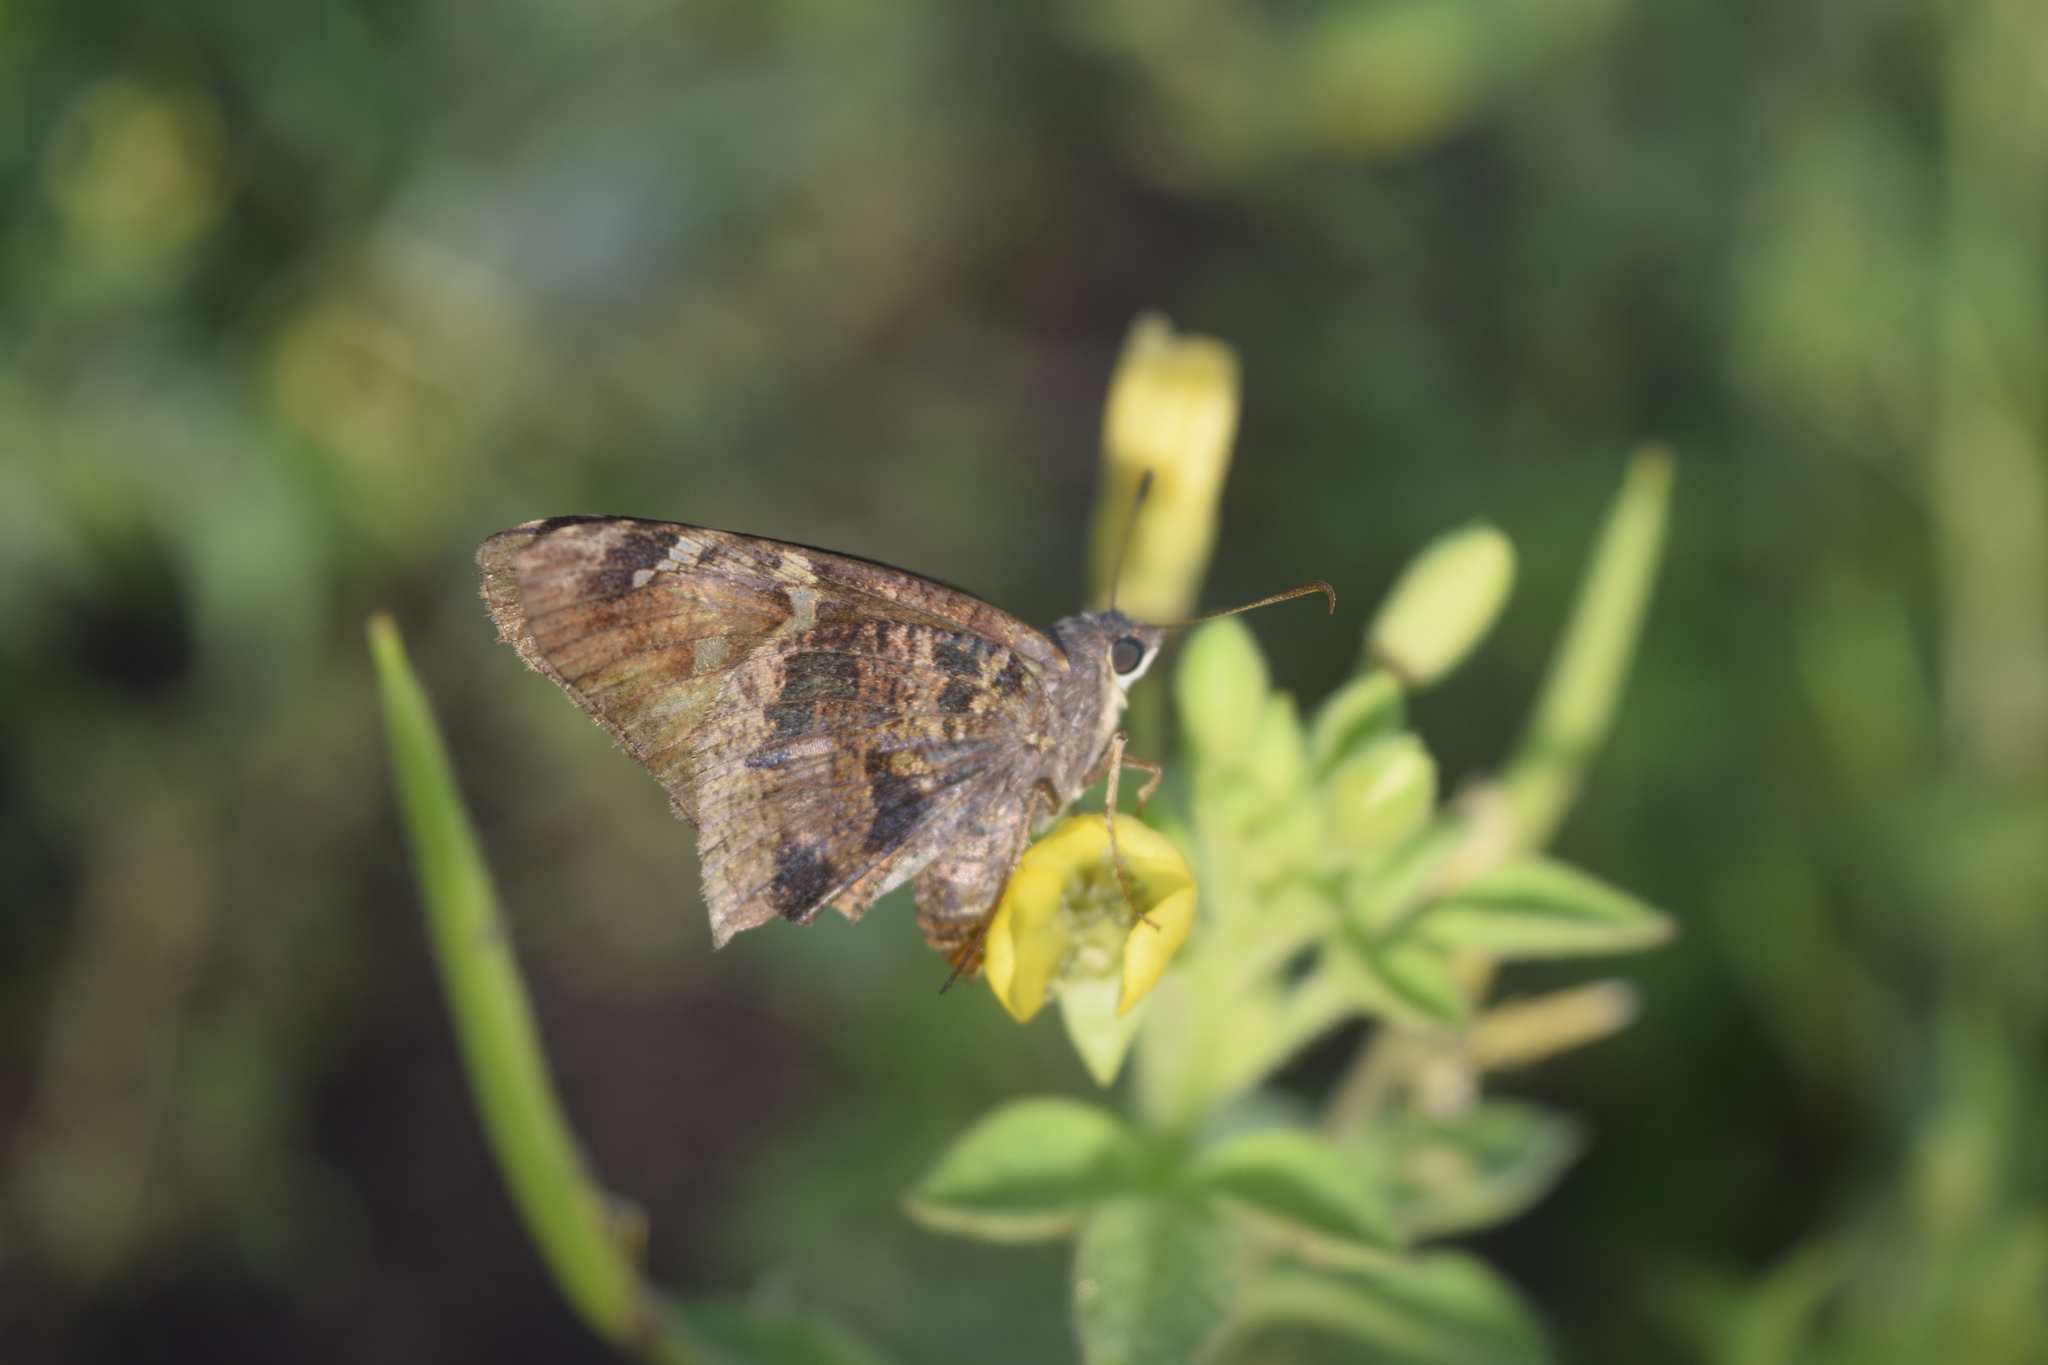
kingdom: Animalia
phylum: Arthropoda
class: Insecta
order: Lepidoptera
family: Hesperiidae
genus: Typhedanus
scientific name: Typhedanus undulatus
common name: Mottled longtail
